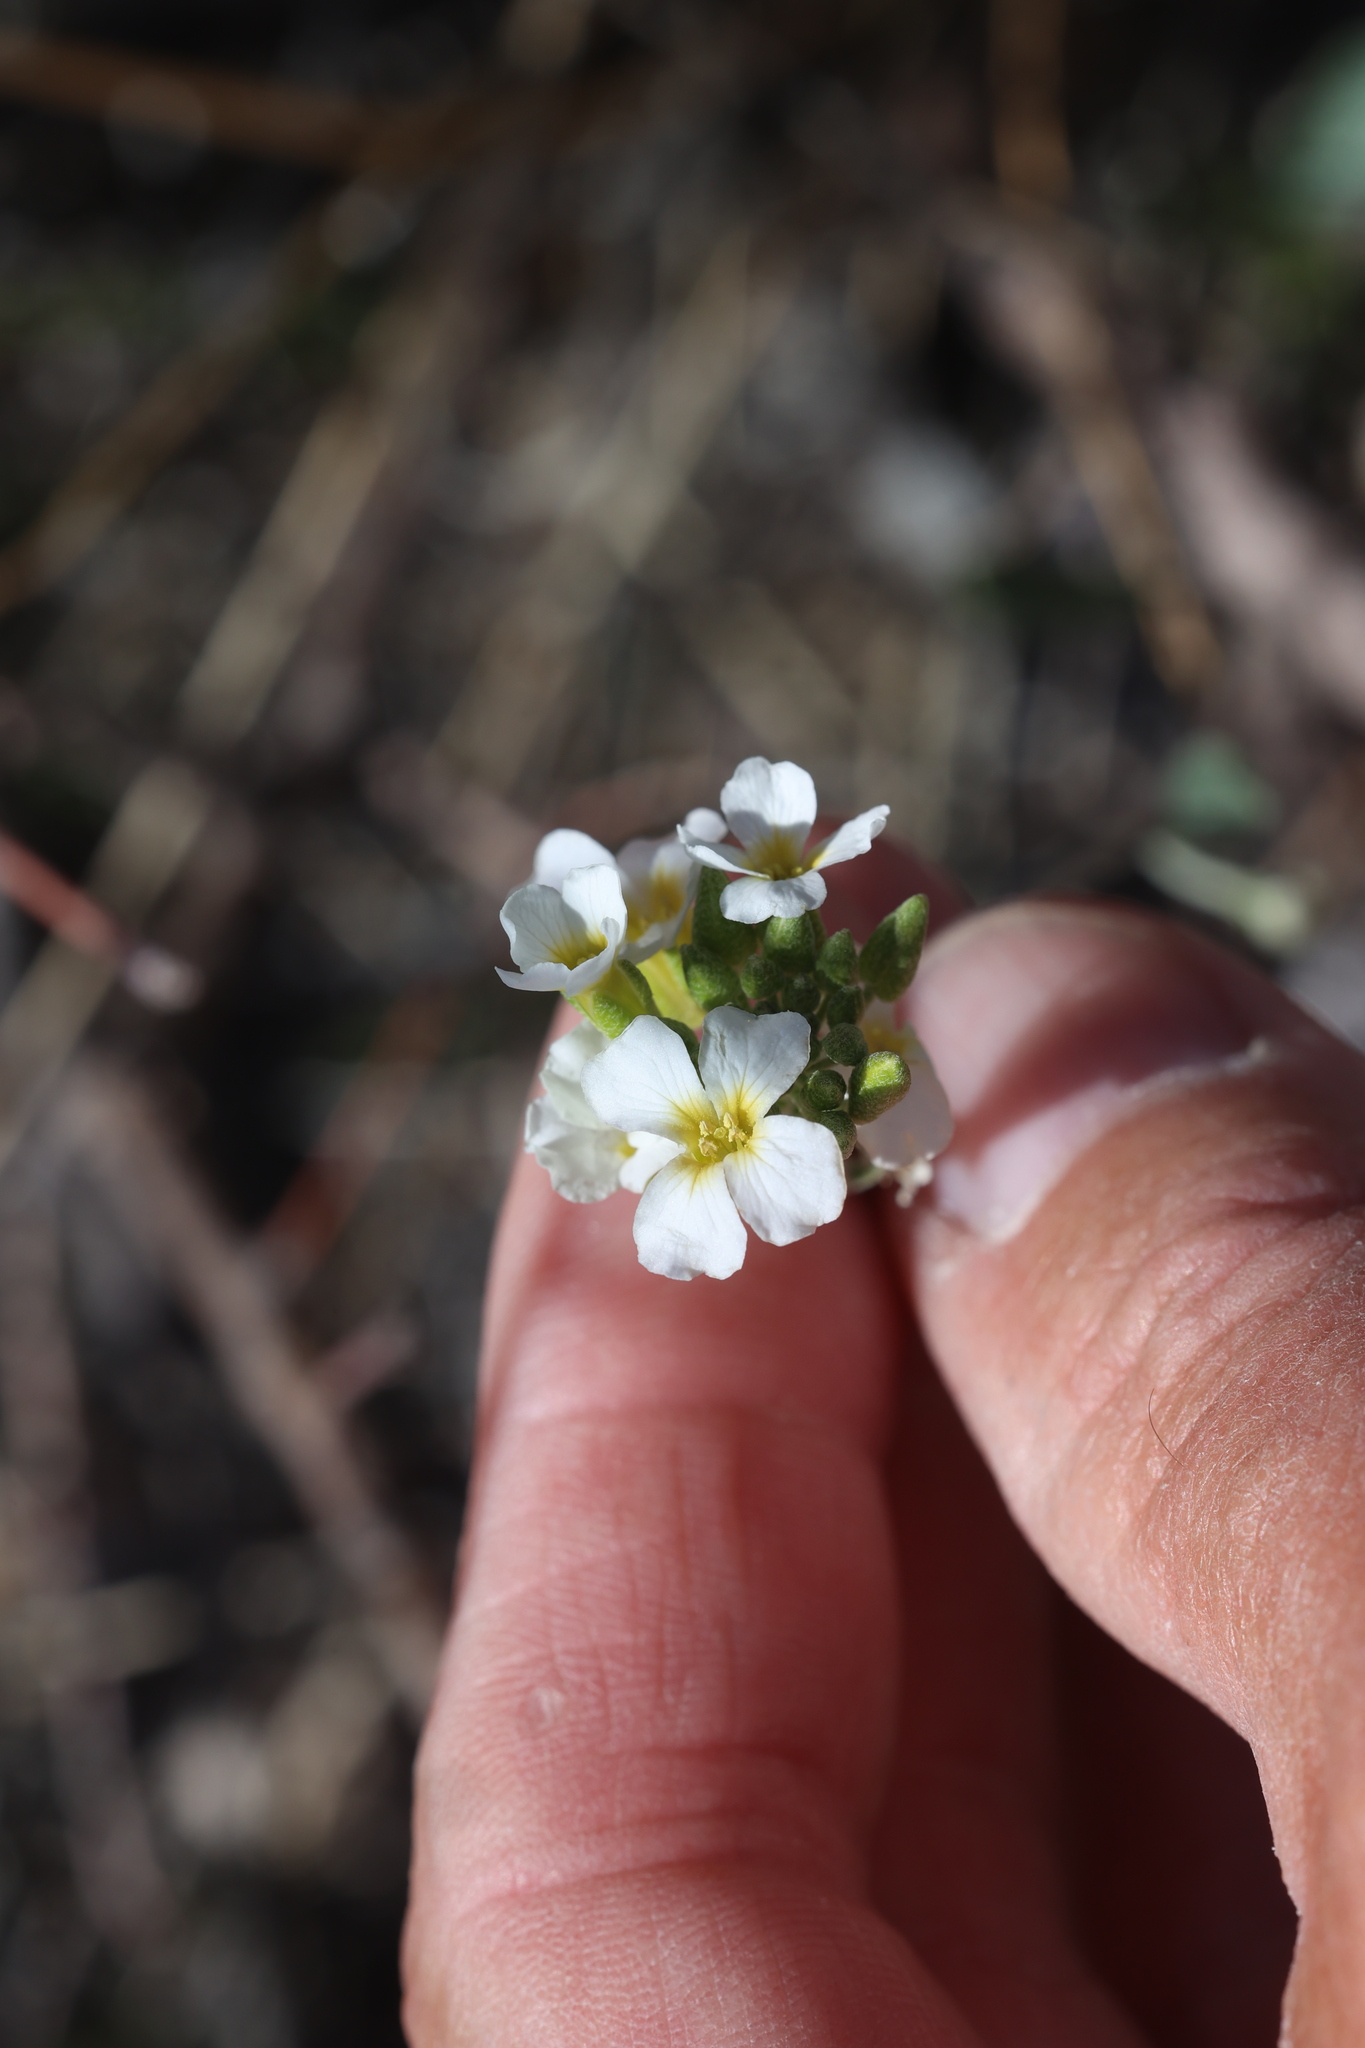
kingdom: Plantae
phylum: Tracheophyta
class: Magnoliopsida
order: Brassicales
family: Brassicaceae
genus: Physaria
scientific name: Physaria purpurea
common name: Rose bladderpod
